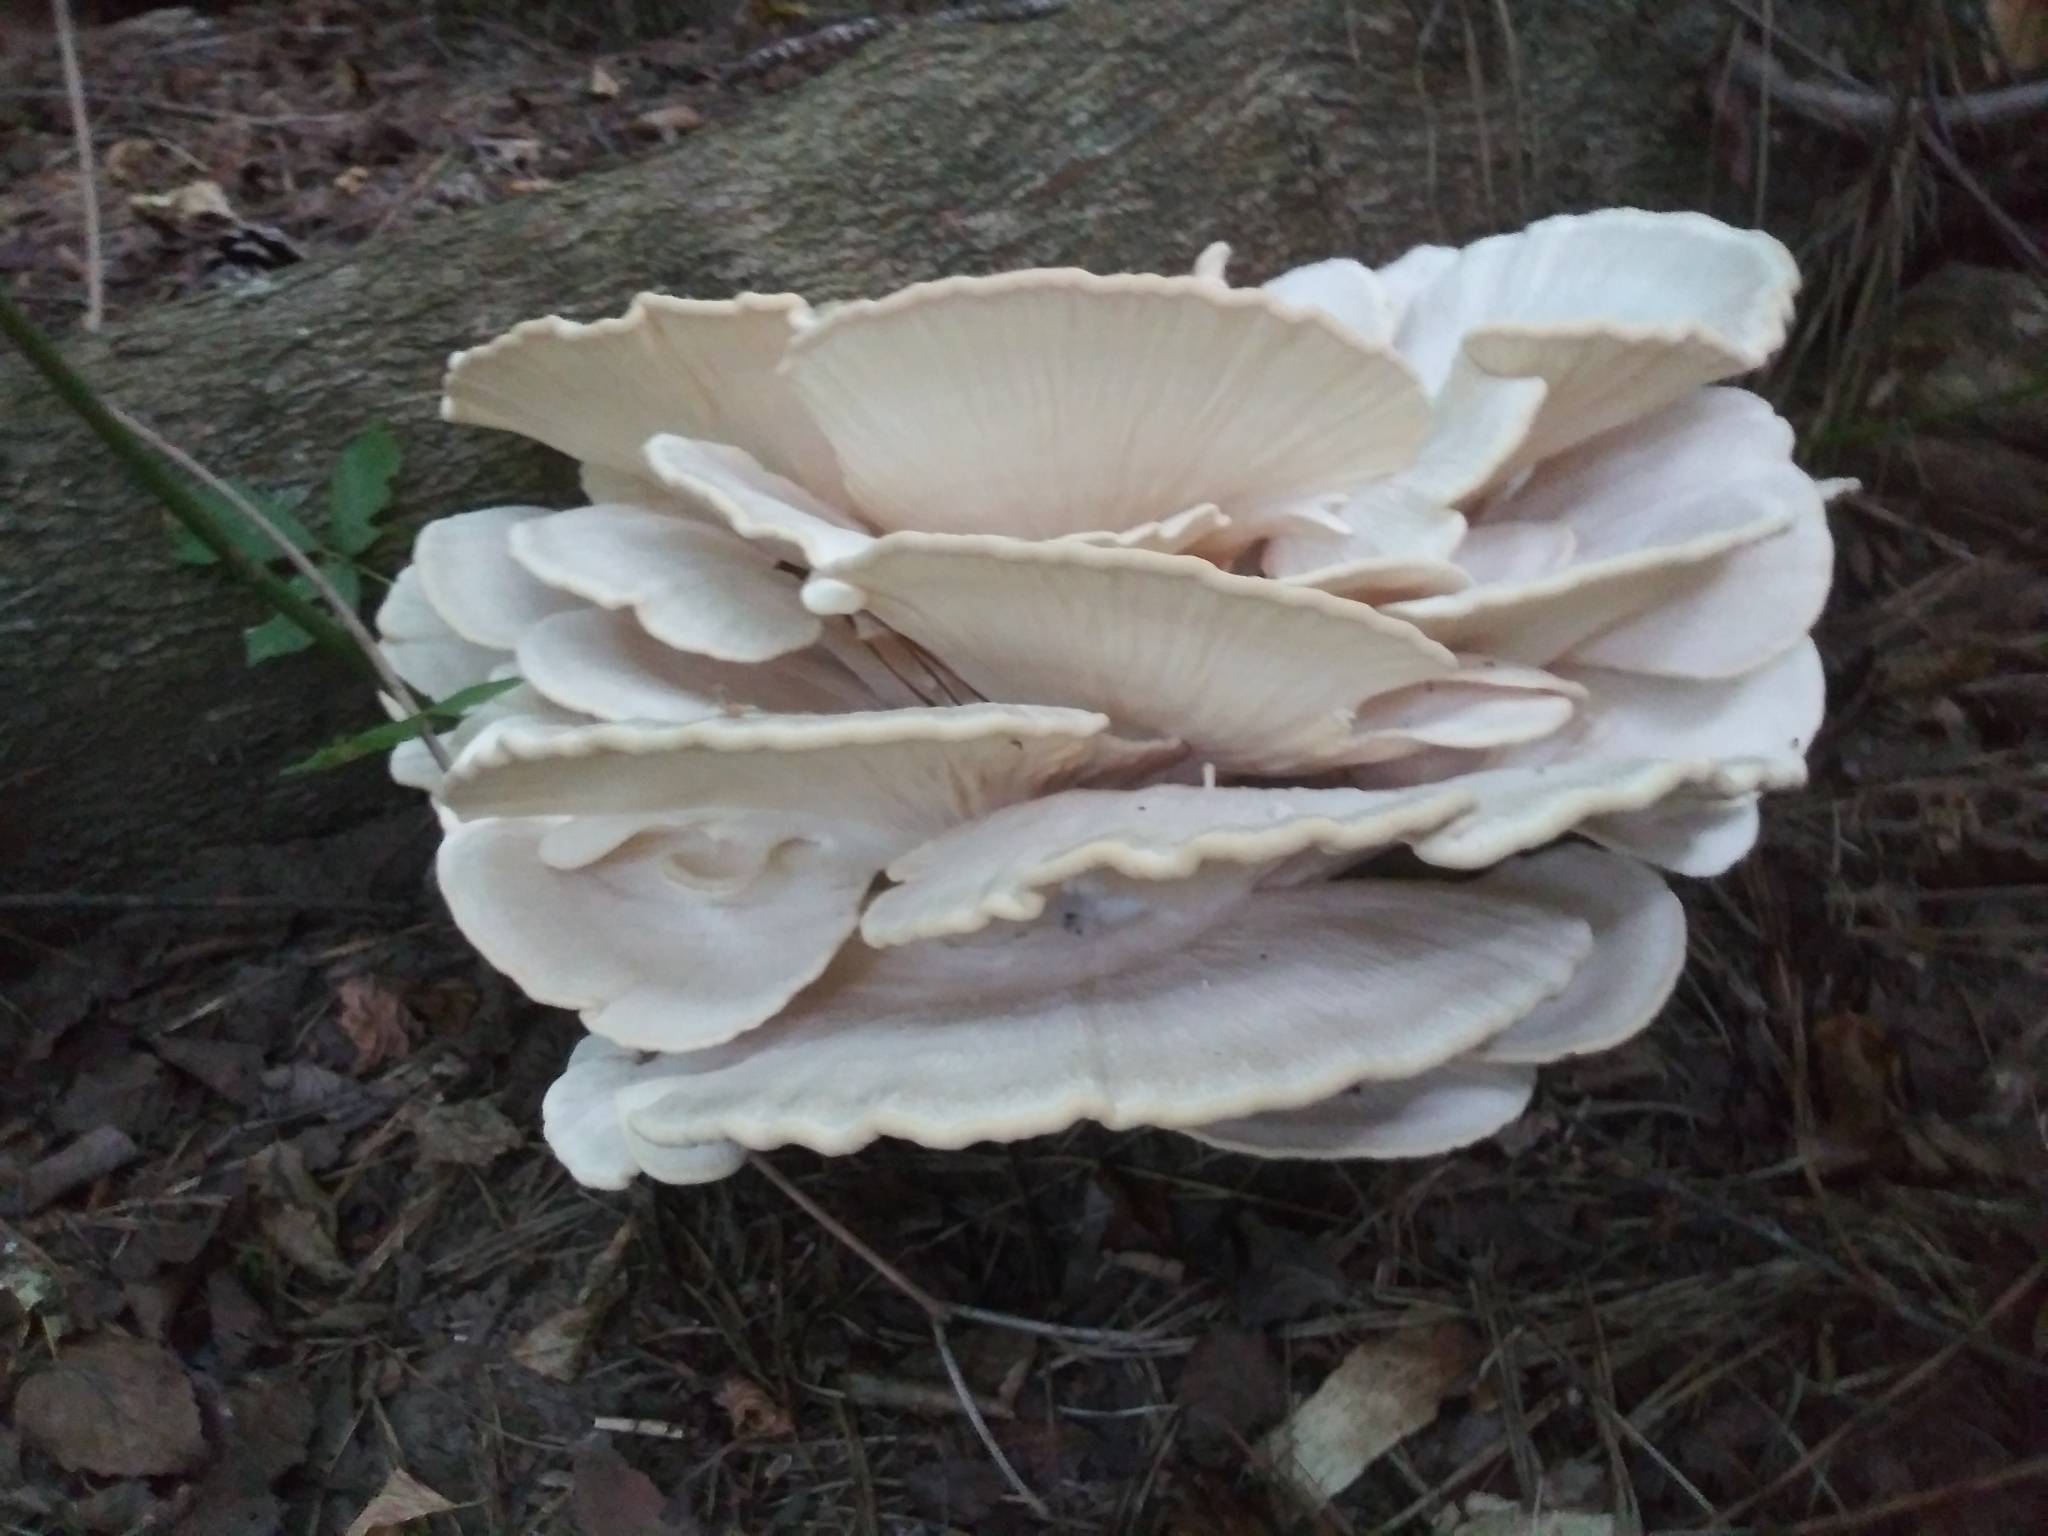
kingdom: Fungi
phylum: Basidiomycota
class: Agaricomycetes
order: Polyporales
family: Meripilaceae
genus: Meripilus
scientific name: Meripilus sumstinei
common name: Black-staining polypore
